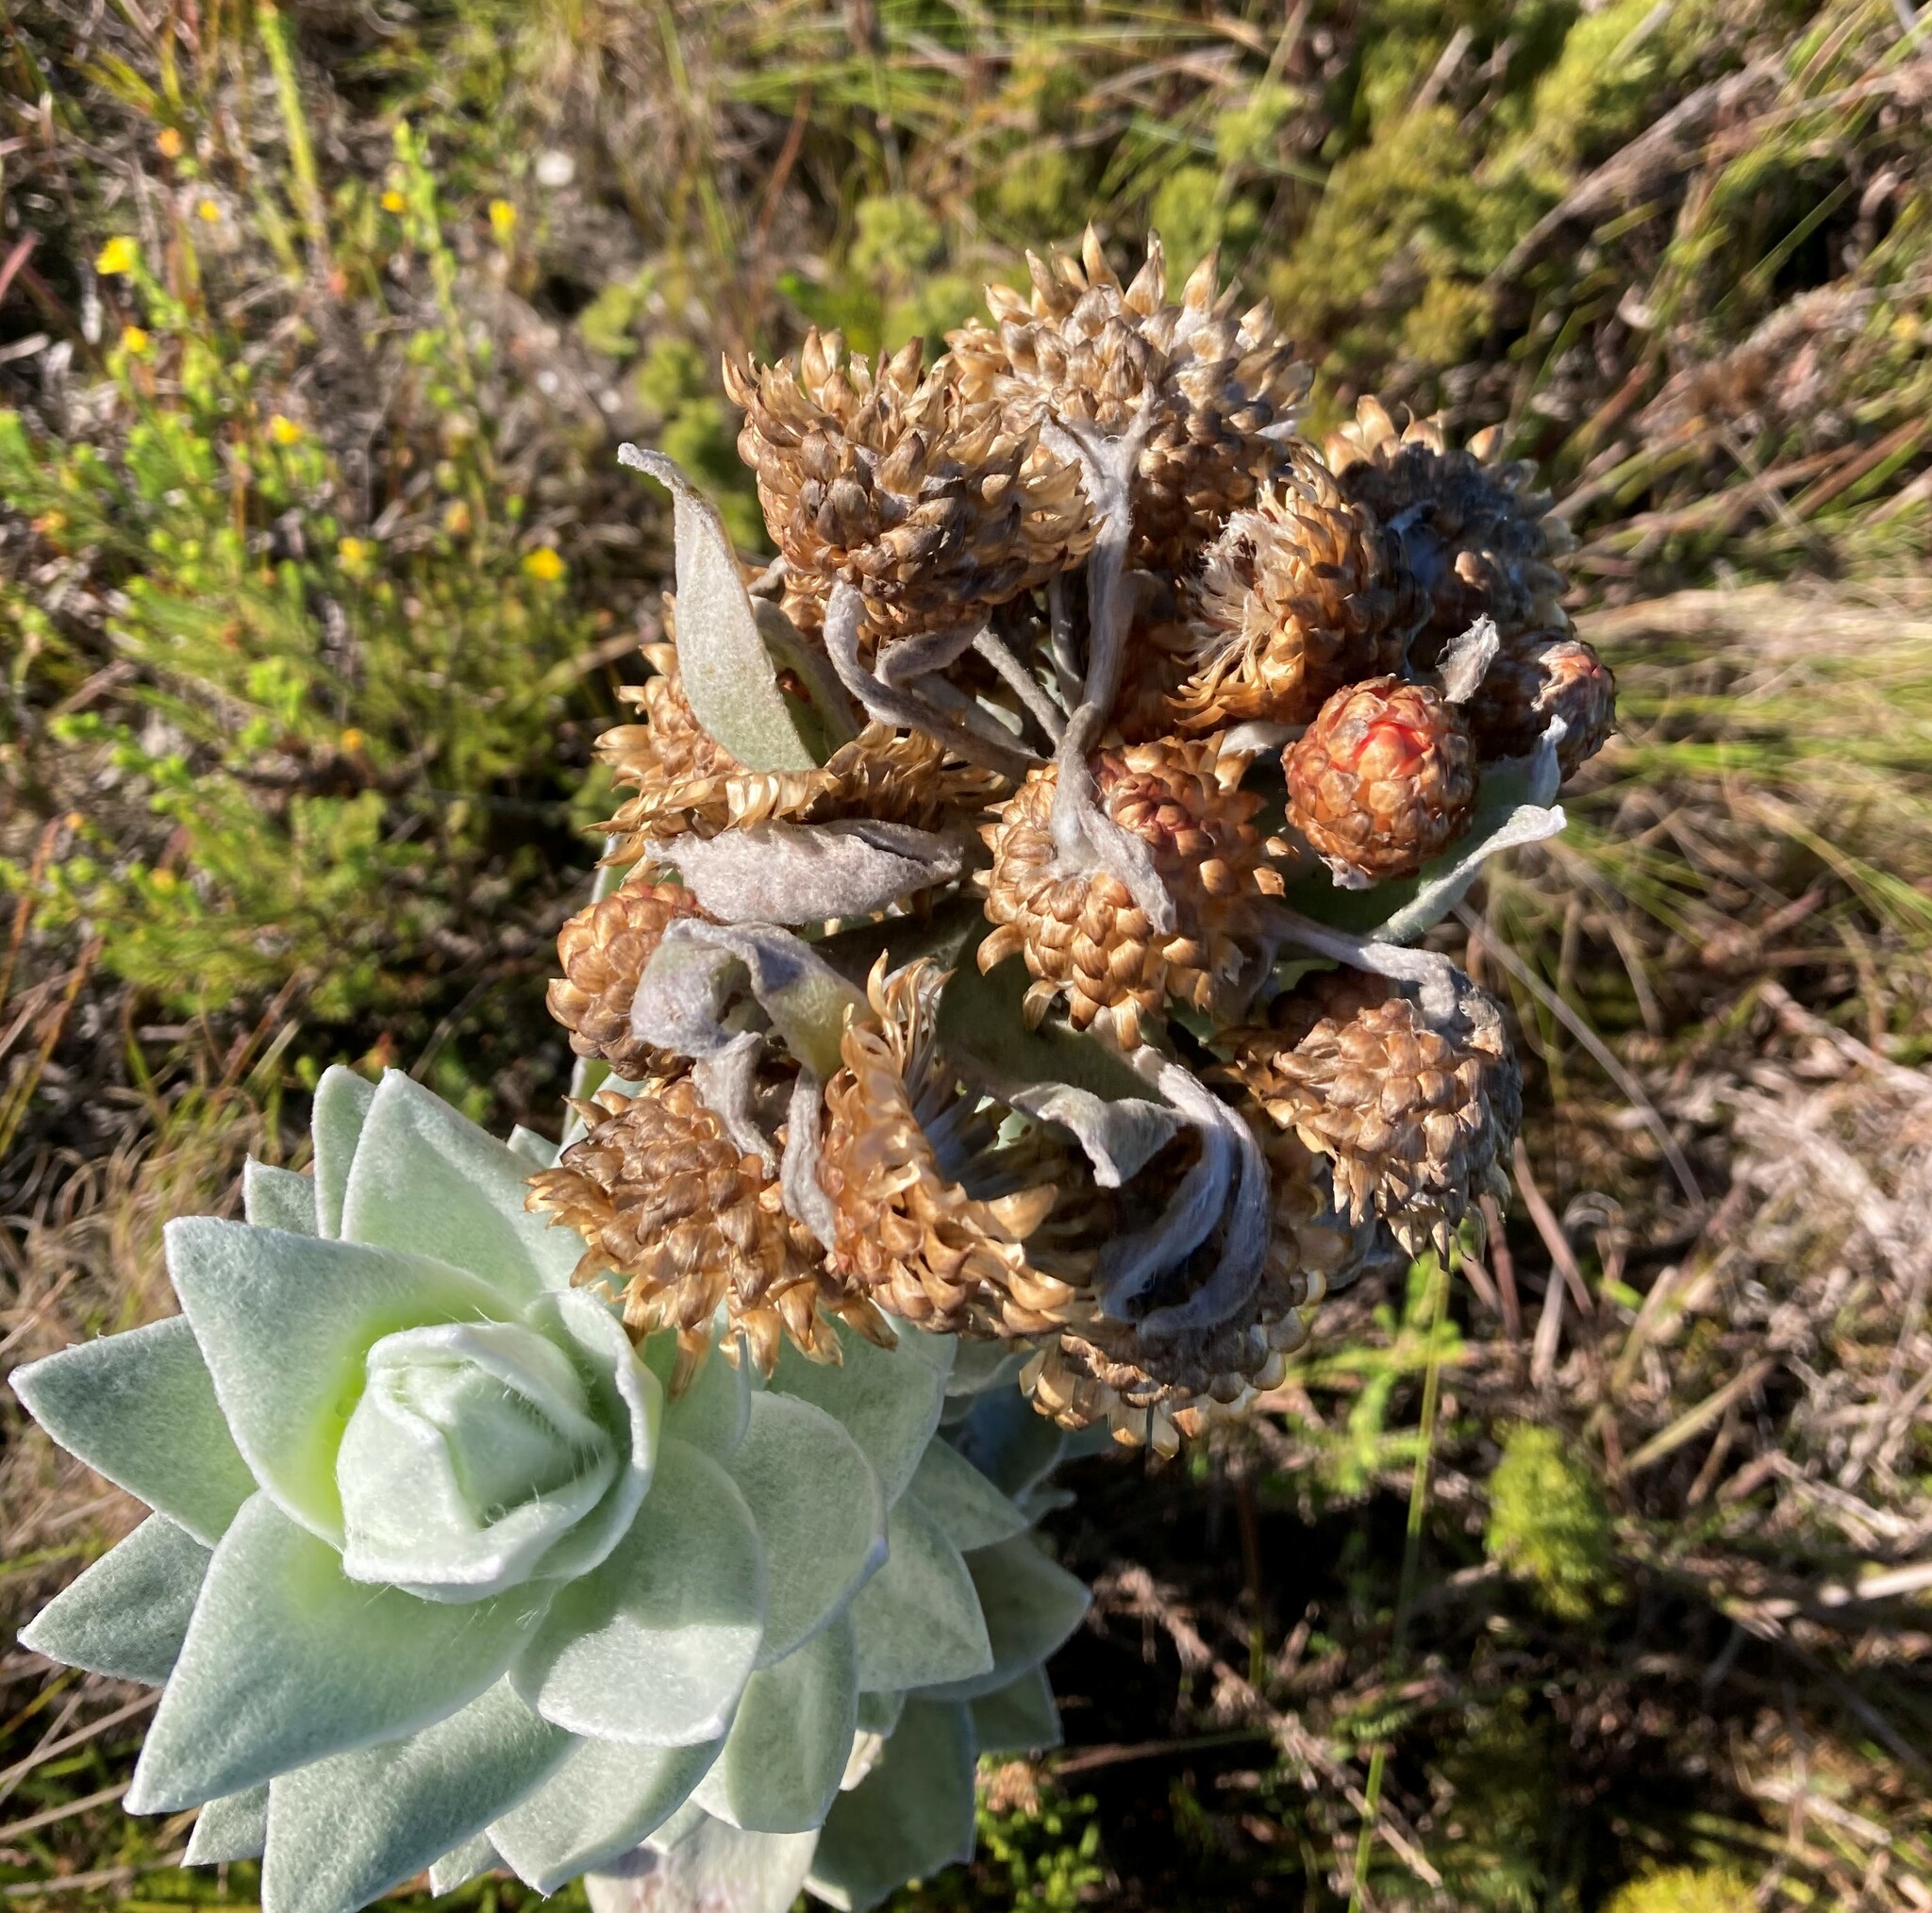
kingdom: Plantae
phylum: Tracheophyta
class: Magnoliopsida
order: Asterales
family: Asteraceae
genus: Syncarpha
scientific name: Syncarpha eximia
